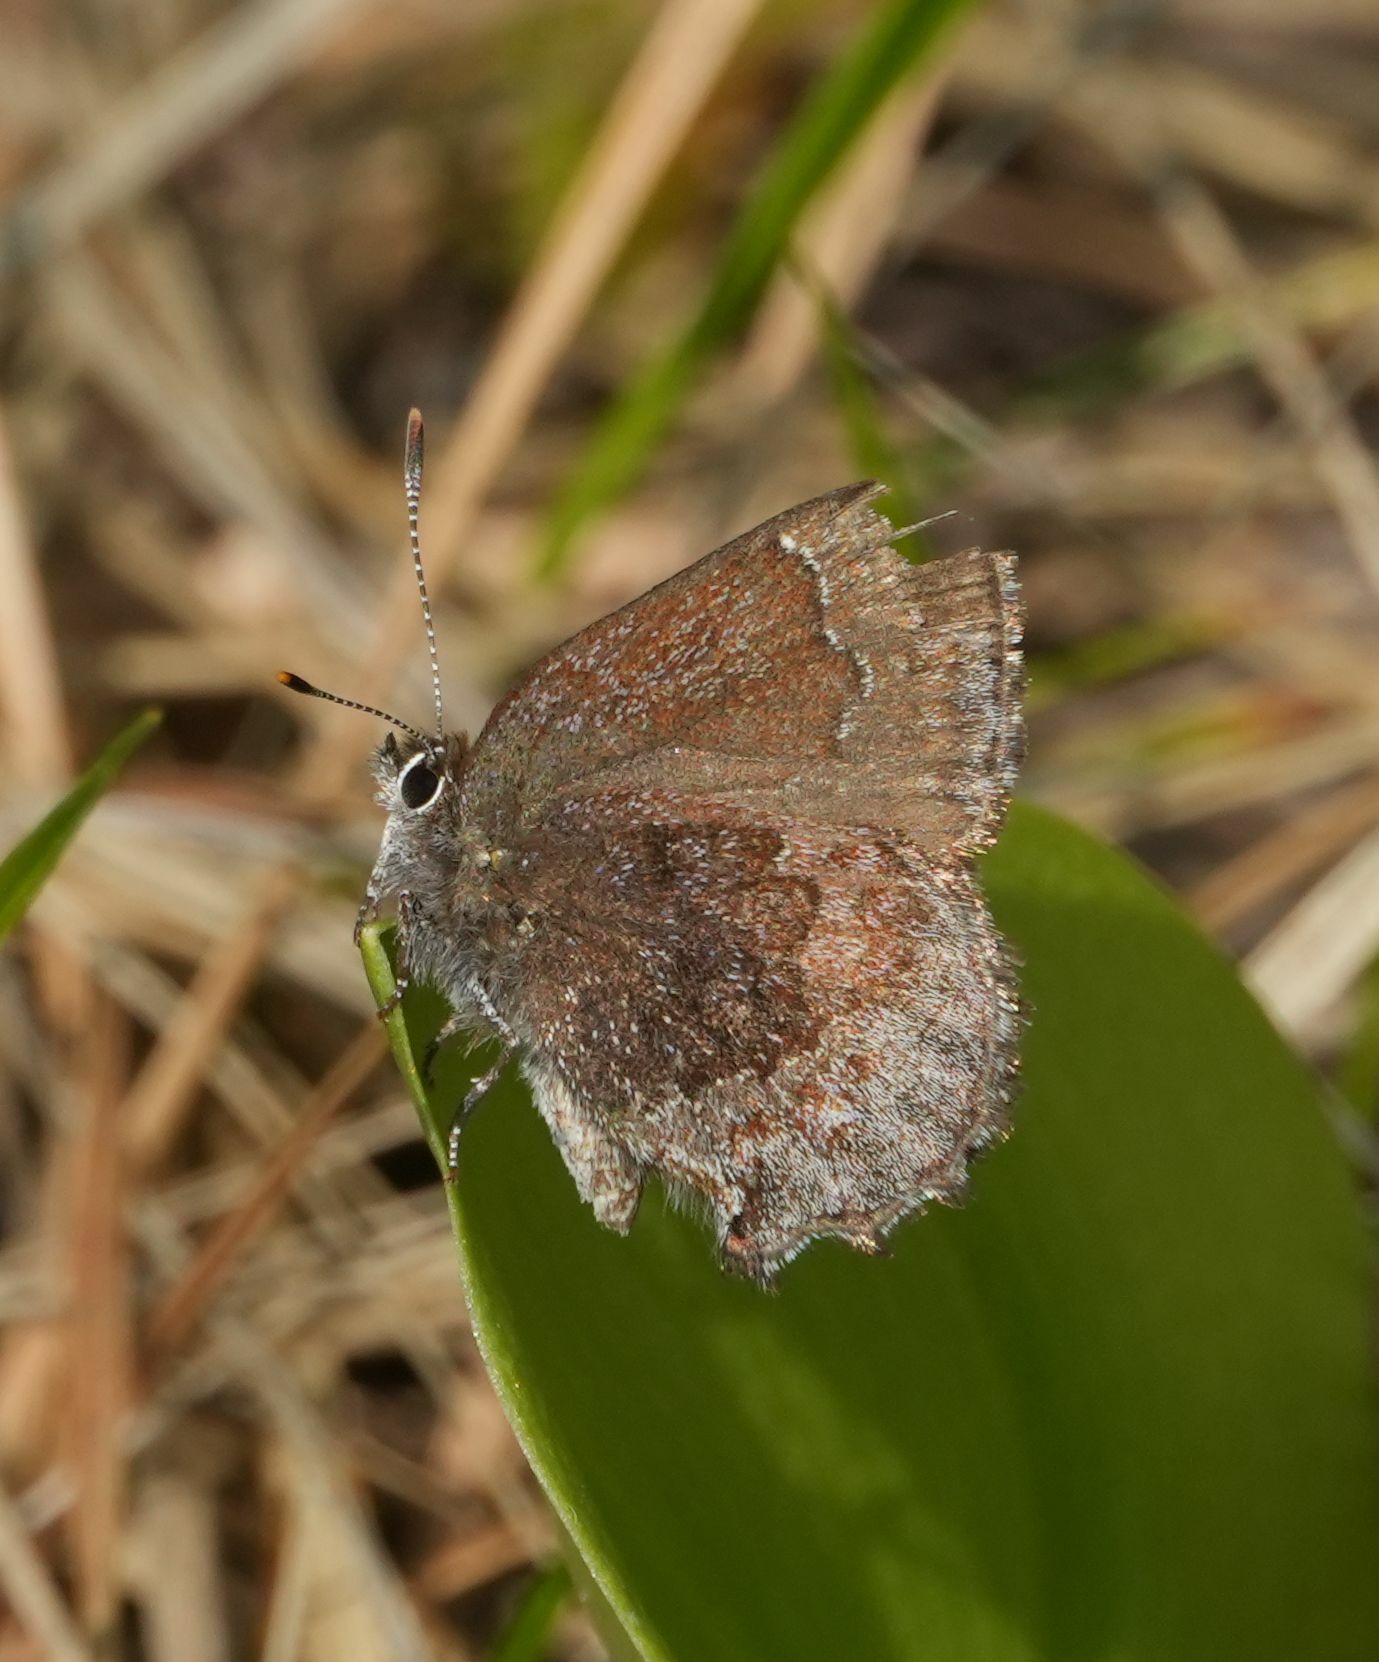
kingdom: Animalia
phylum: Arthropoda
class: Insecta
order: Lepidoptera
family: Lycaenidae
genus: Callophrys
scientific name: Callophrys polios
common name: Hoary elfin
